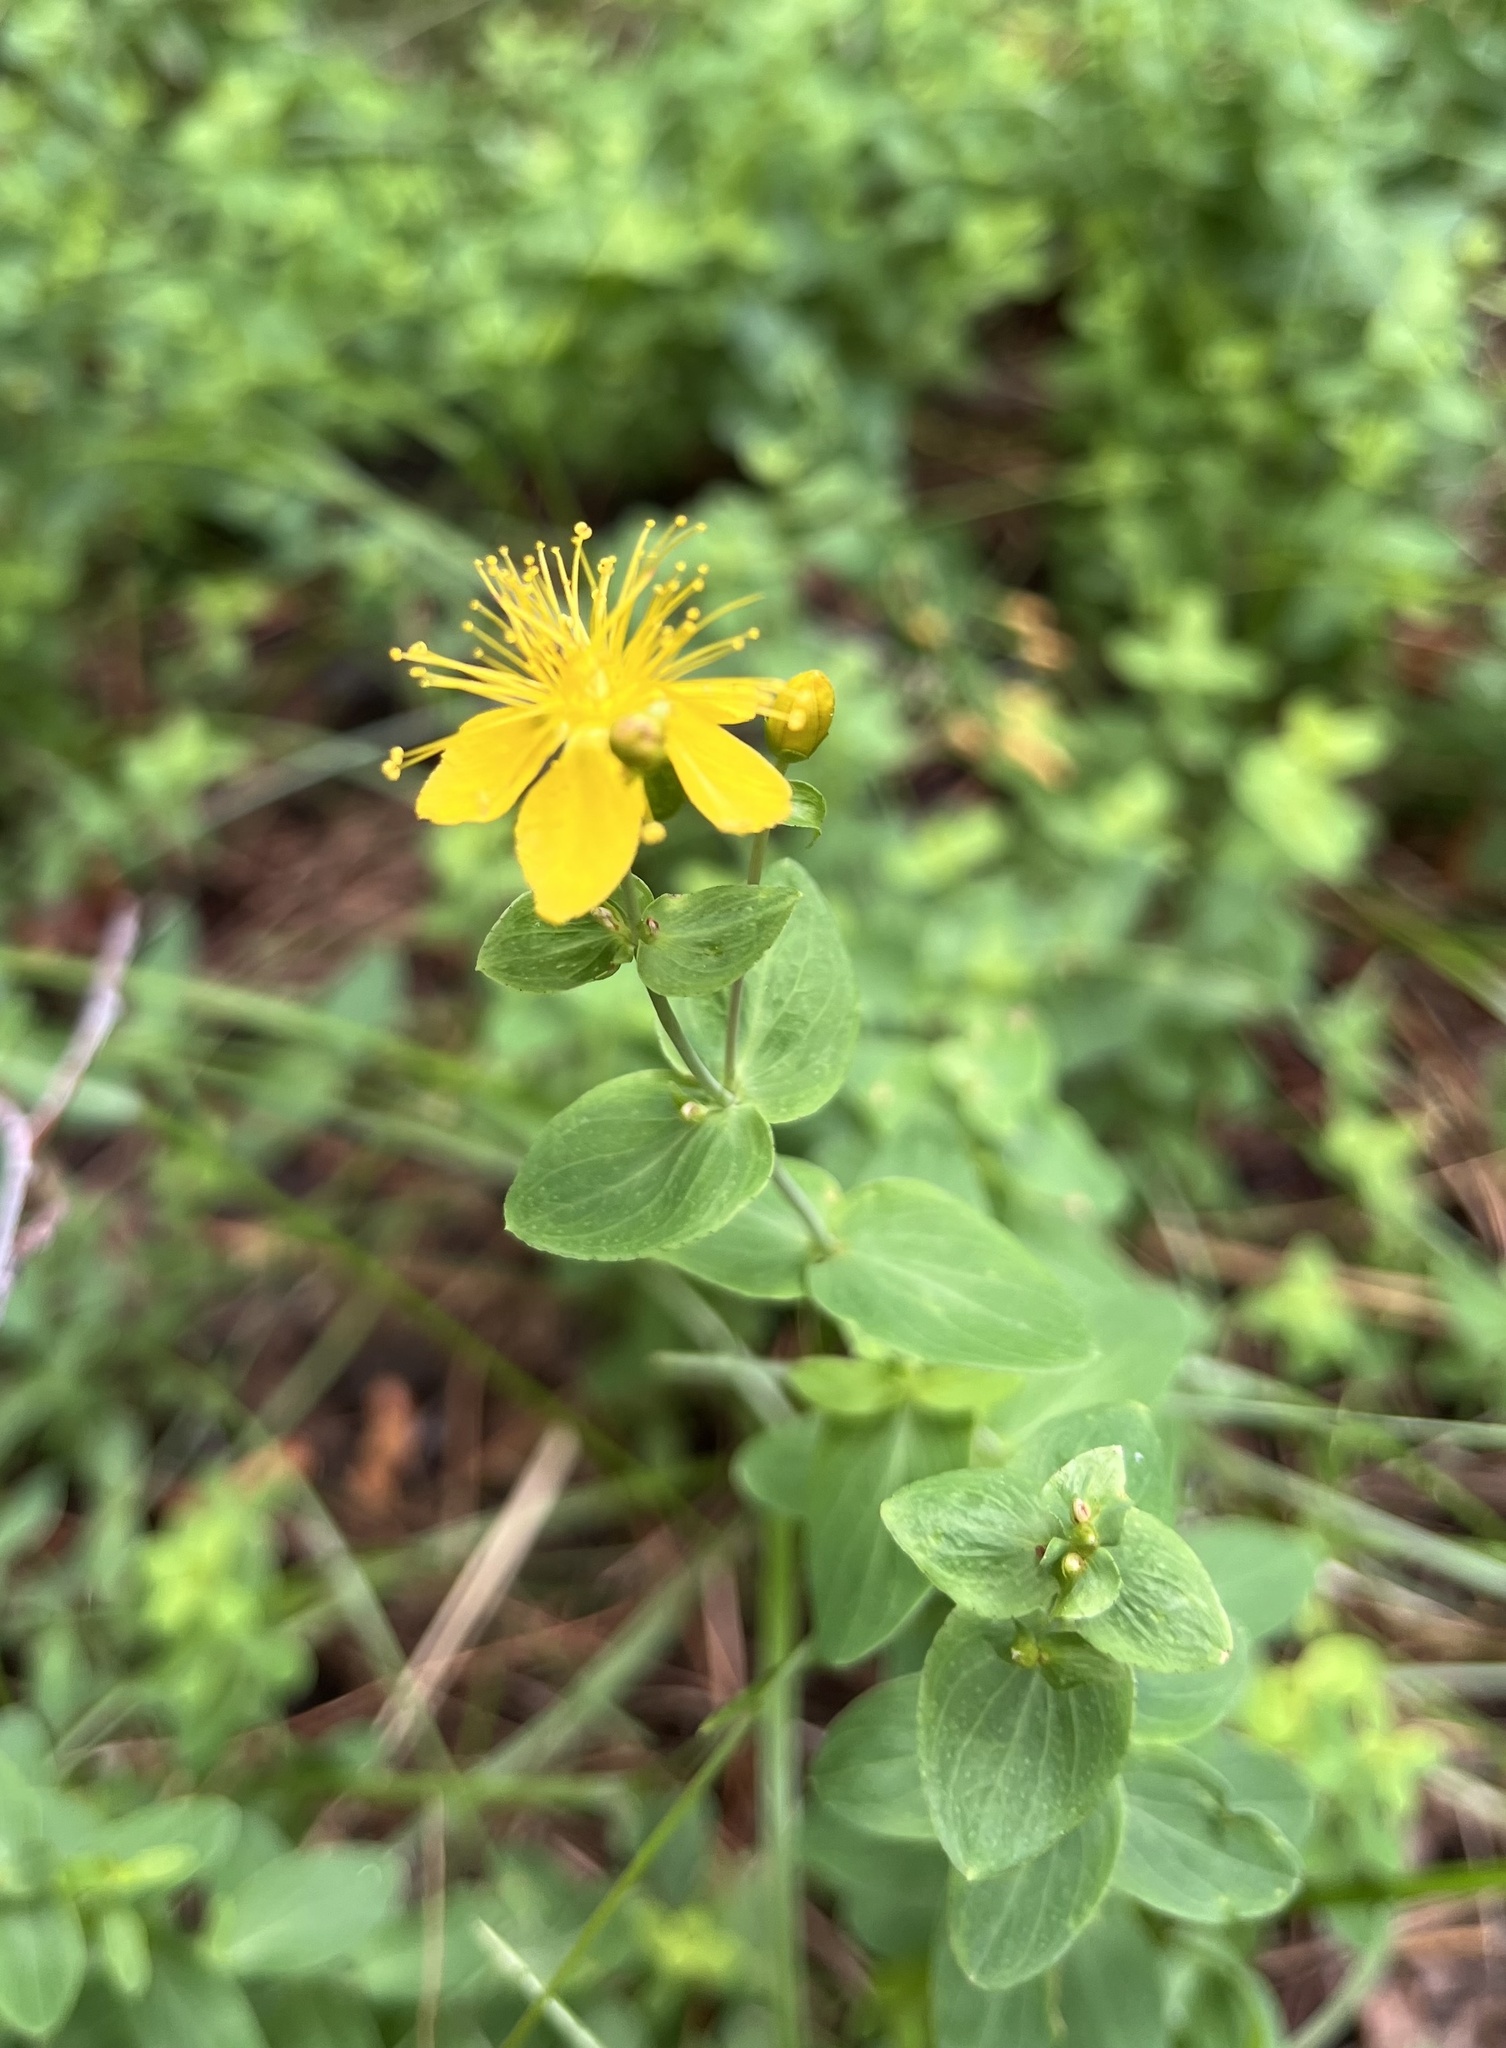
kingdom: Plantae
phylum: Tracheophyta
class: Magnoliopsida
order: Malpighiales
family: Hypericaceae
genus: Hypericum
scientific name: Hypericum scouleri
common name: Scouler's st. john's-wort
